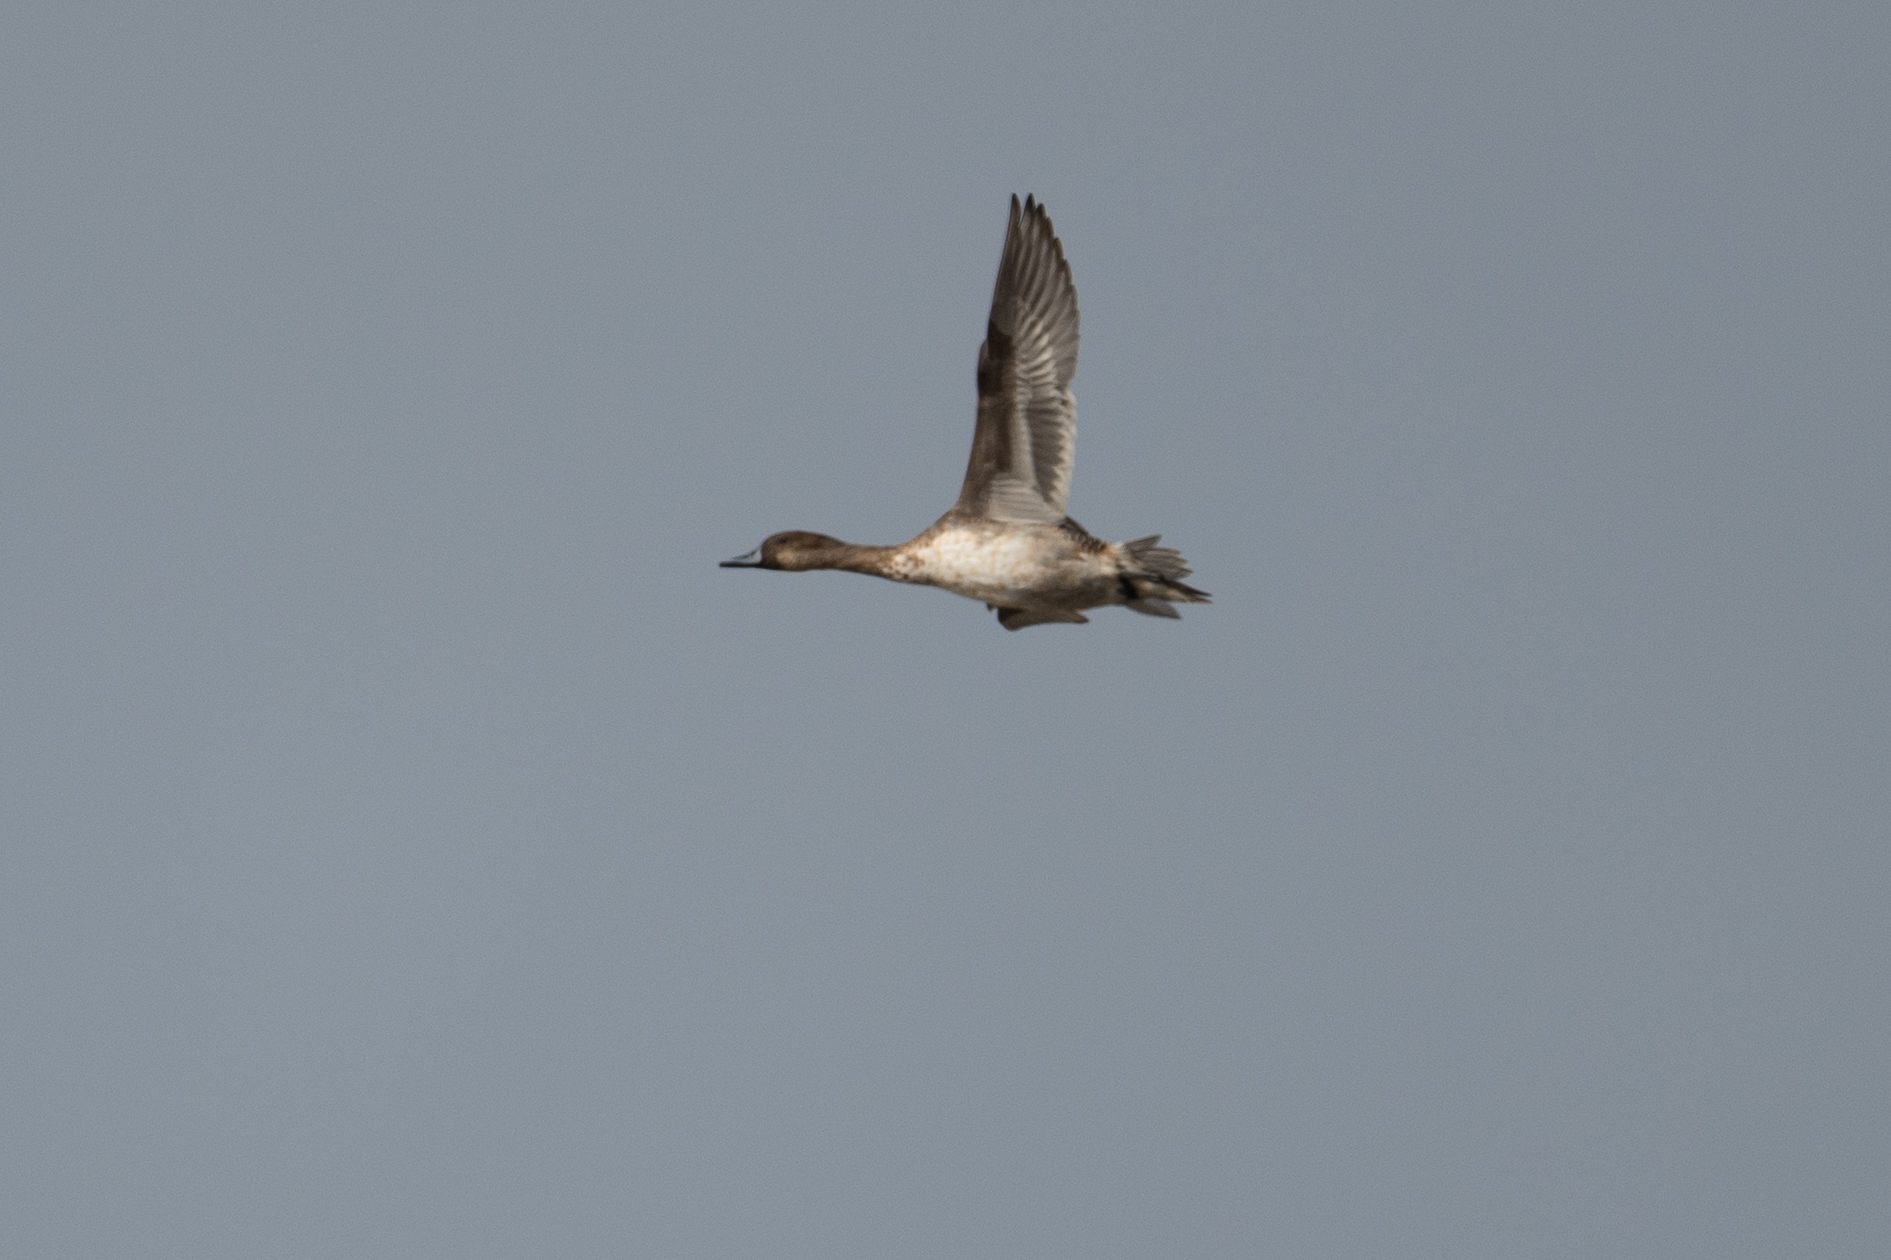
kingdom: Animalia
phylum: Chordata
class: Aves
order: Anseriformes
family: Anatidae
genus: Anas
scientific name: Anas acuta
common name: Northern pintail
